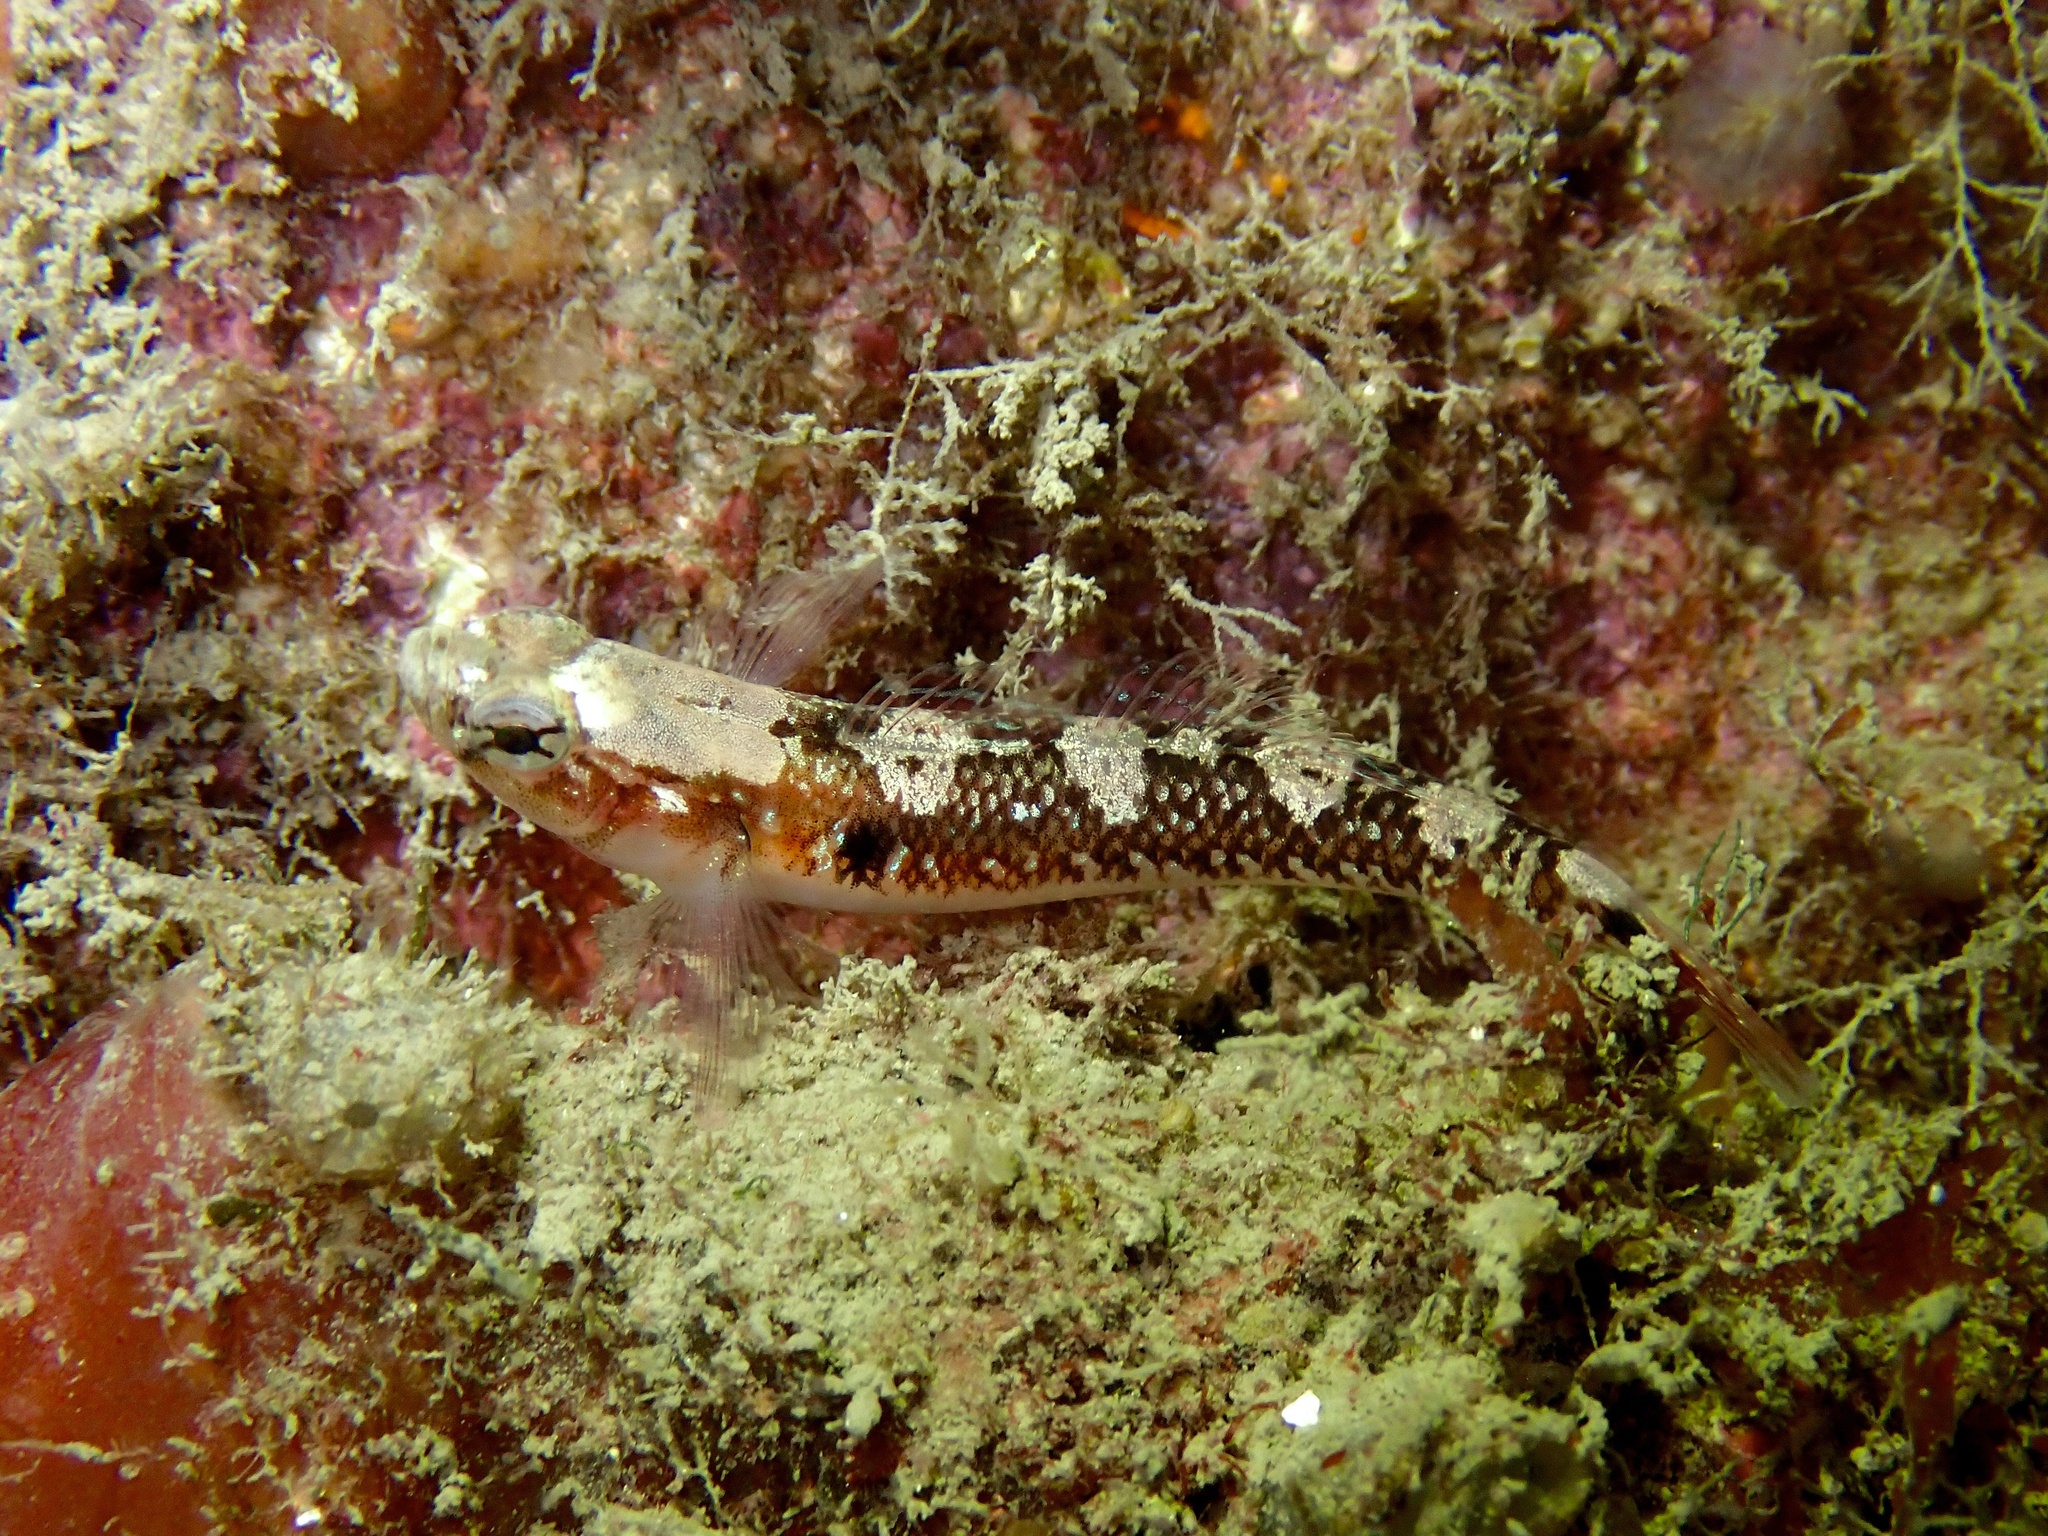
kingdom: Animalia
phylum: Chordata
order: Perciformes
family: Gobiidae
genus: Gobiusculus
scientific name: Gobiusculus flavescens
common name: Two-spotted goby
